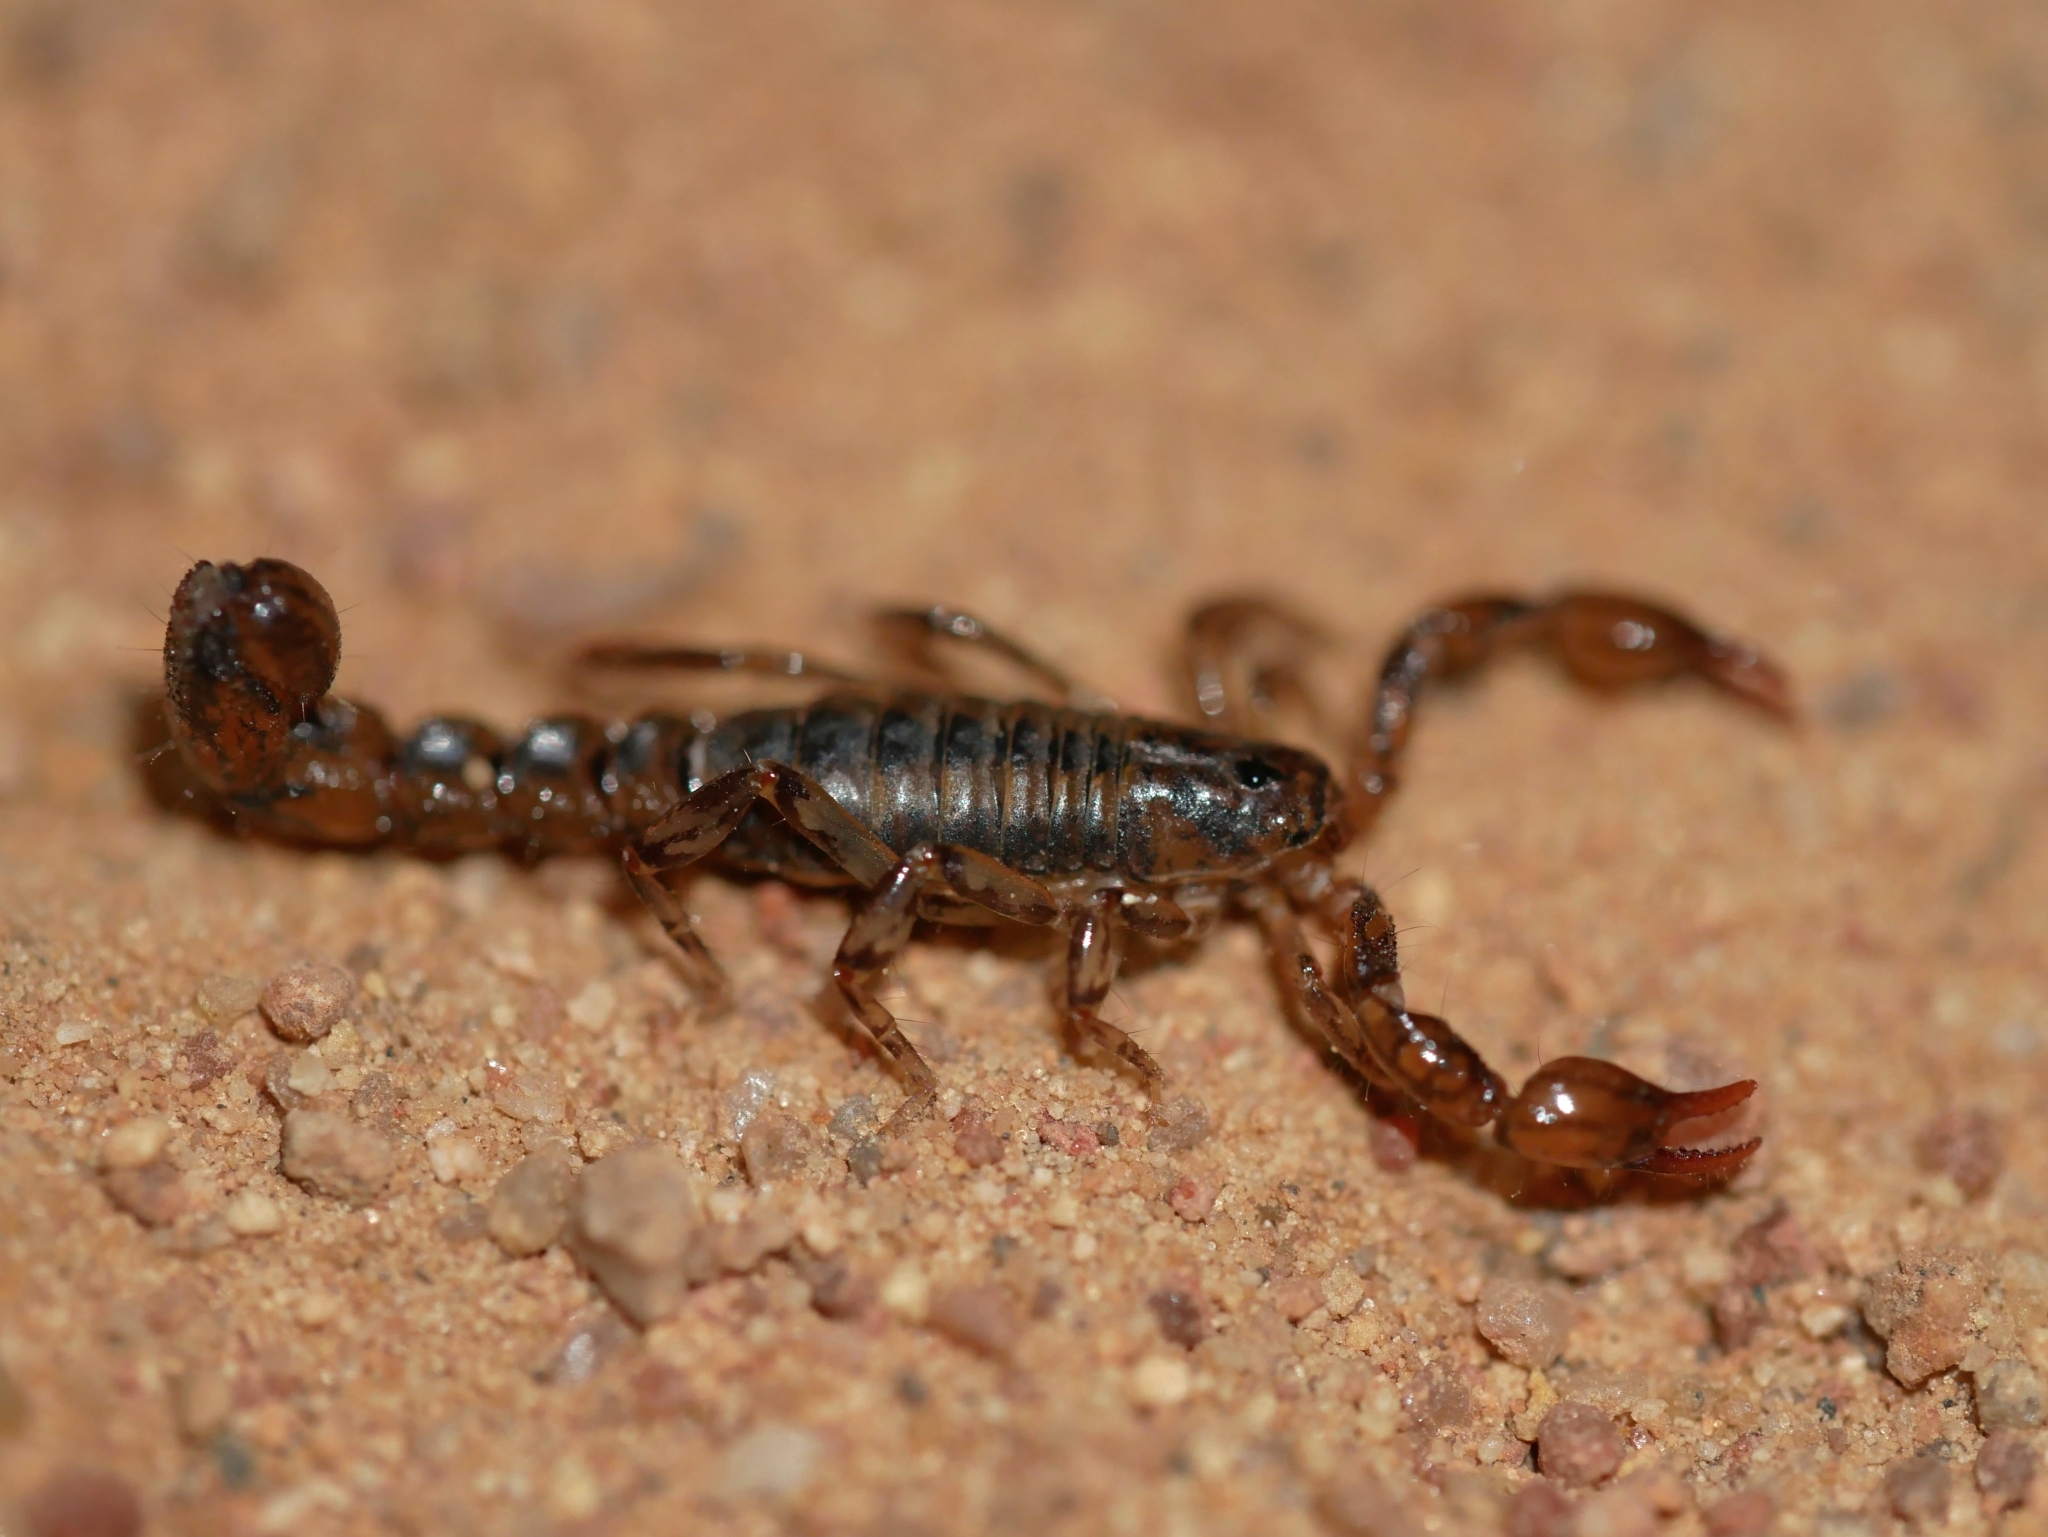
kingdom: Animalia
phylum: Arthropoda
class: Arachnida
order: Scorpiones
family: Superstitioniidae
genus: Superstitionia
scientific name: Superstitionia donensis
